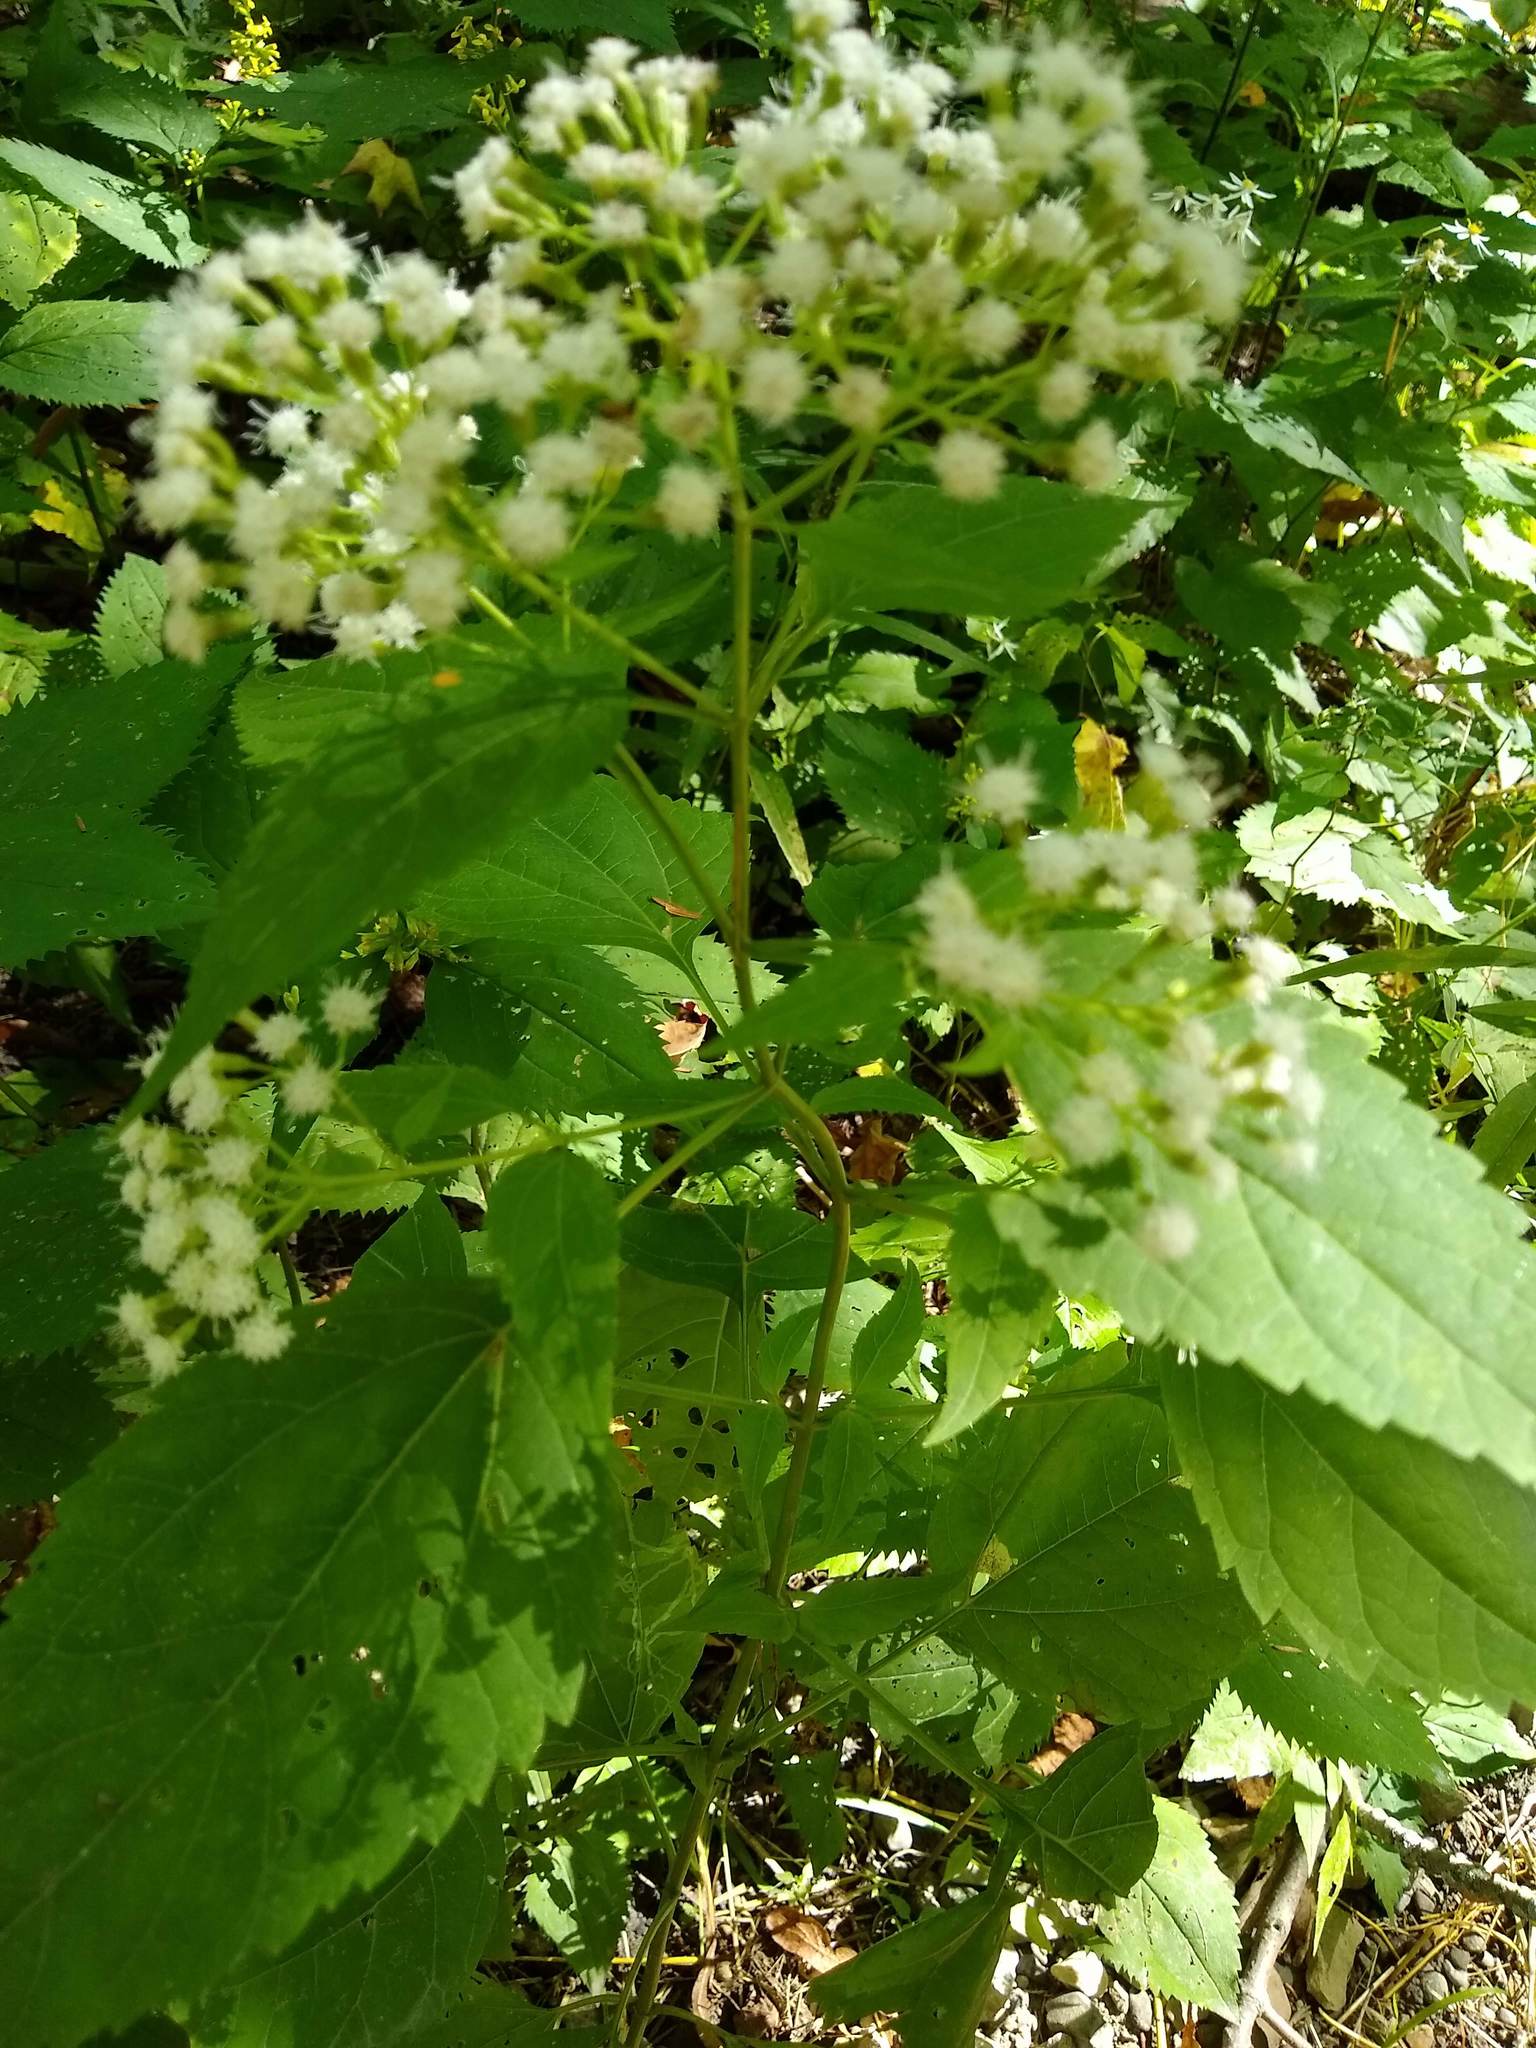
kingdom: Plantae
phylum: Tracheophyta
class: Magnoliopsida
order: Asterales
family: Asteraceae
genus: Ageratina
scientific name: Ageratina altissima
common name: White snakeroot
